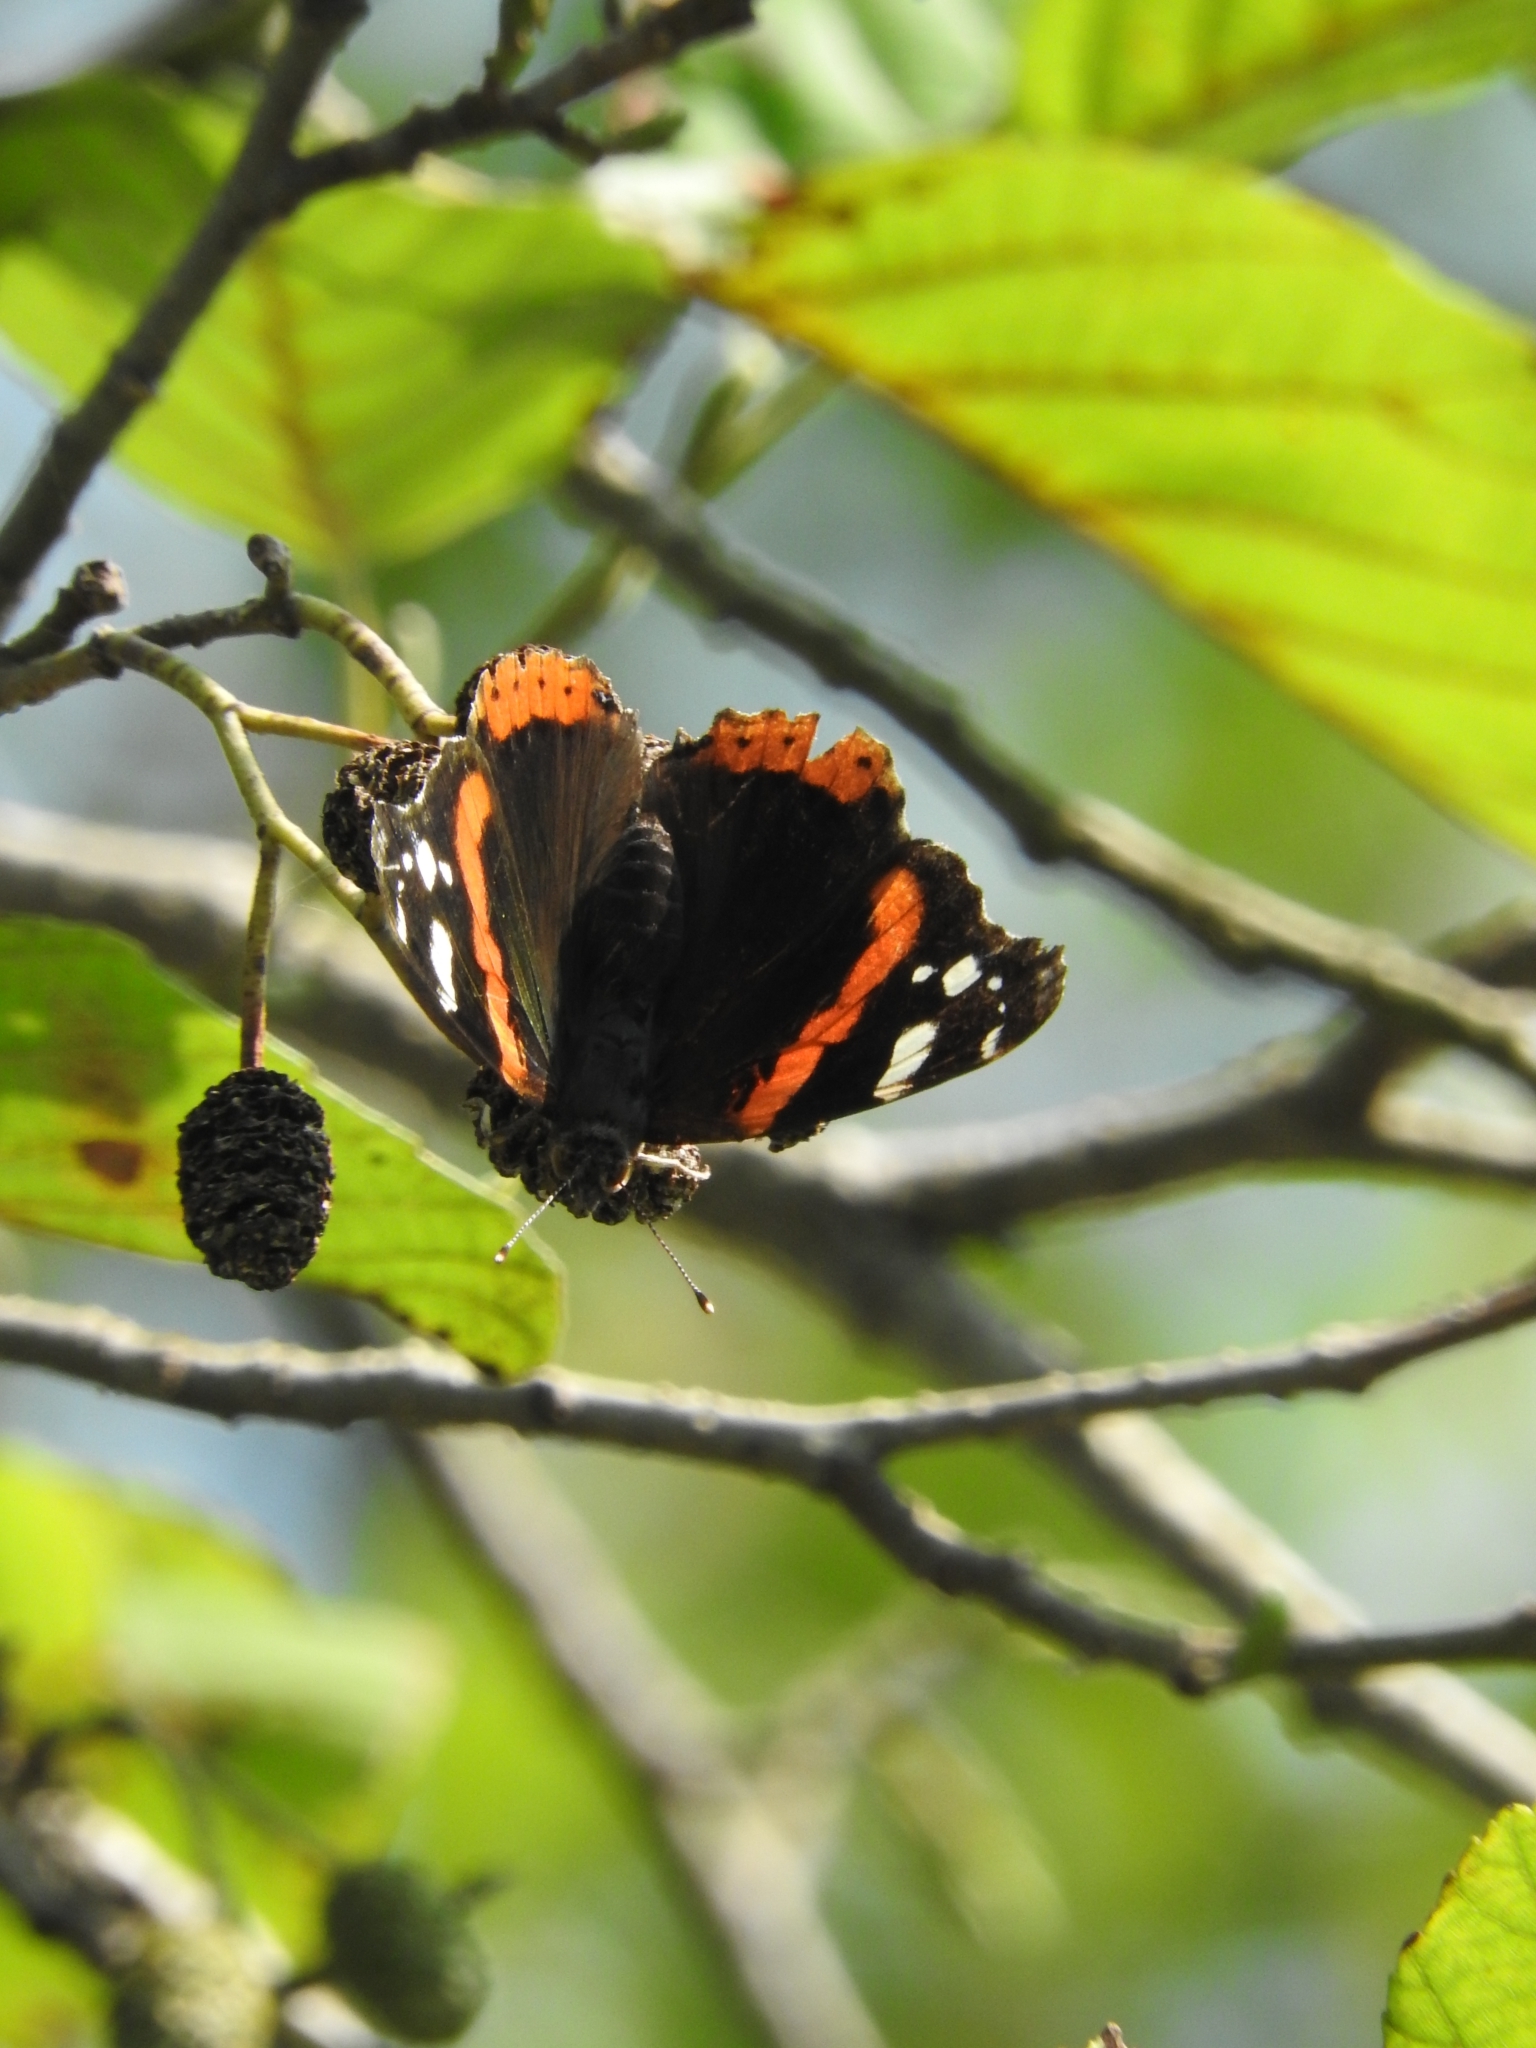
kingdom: Animalia
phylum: Arthropoda
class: Insecta
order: Lepidoptera
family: Nymphalidae
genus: Vanessa
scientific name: Vanessa atalanta
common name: Red admiral
